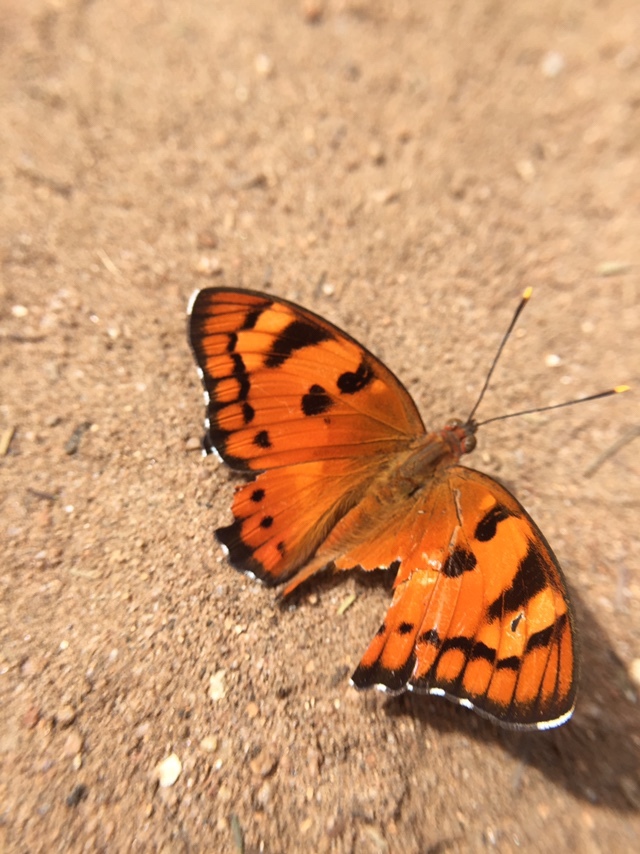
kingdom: Animalia
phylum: Arthropoda
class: Insecta
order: Lepidoptera
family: Nymphalidae
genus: Euthalia
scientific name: Euthalia nais
